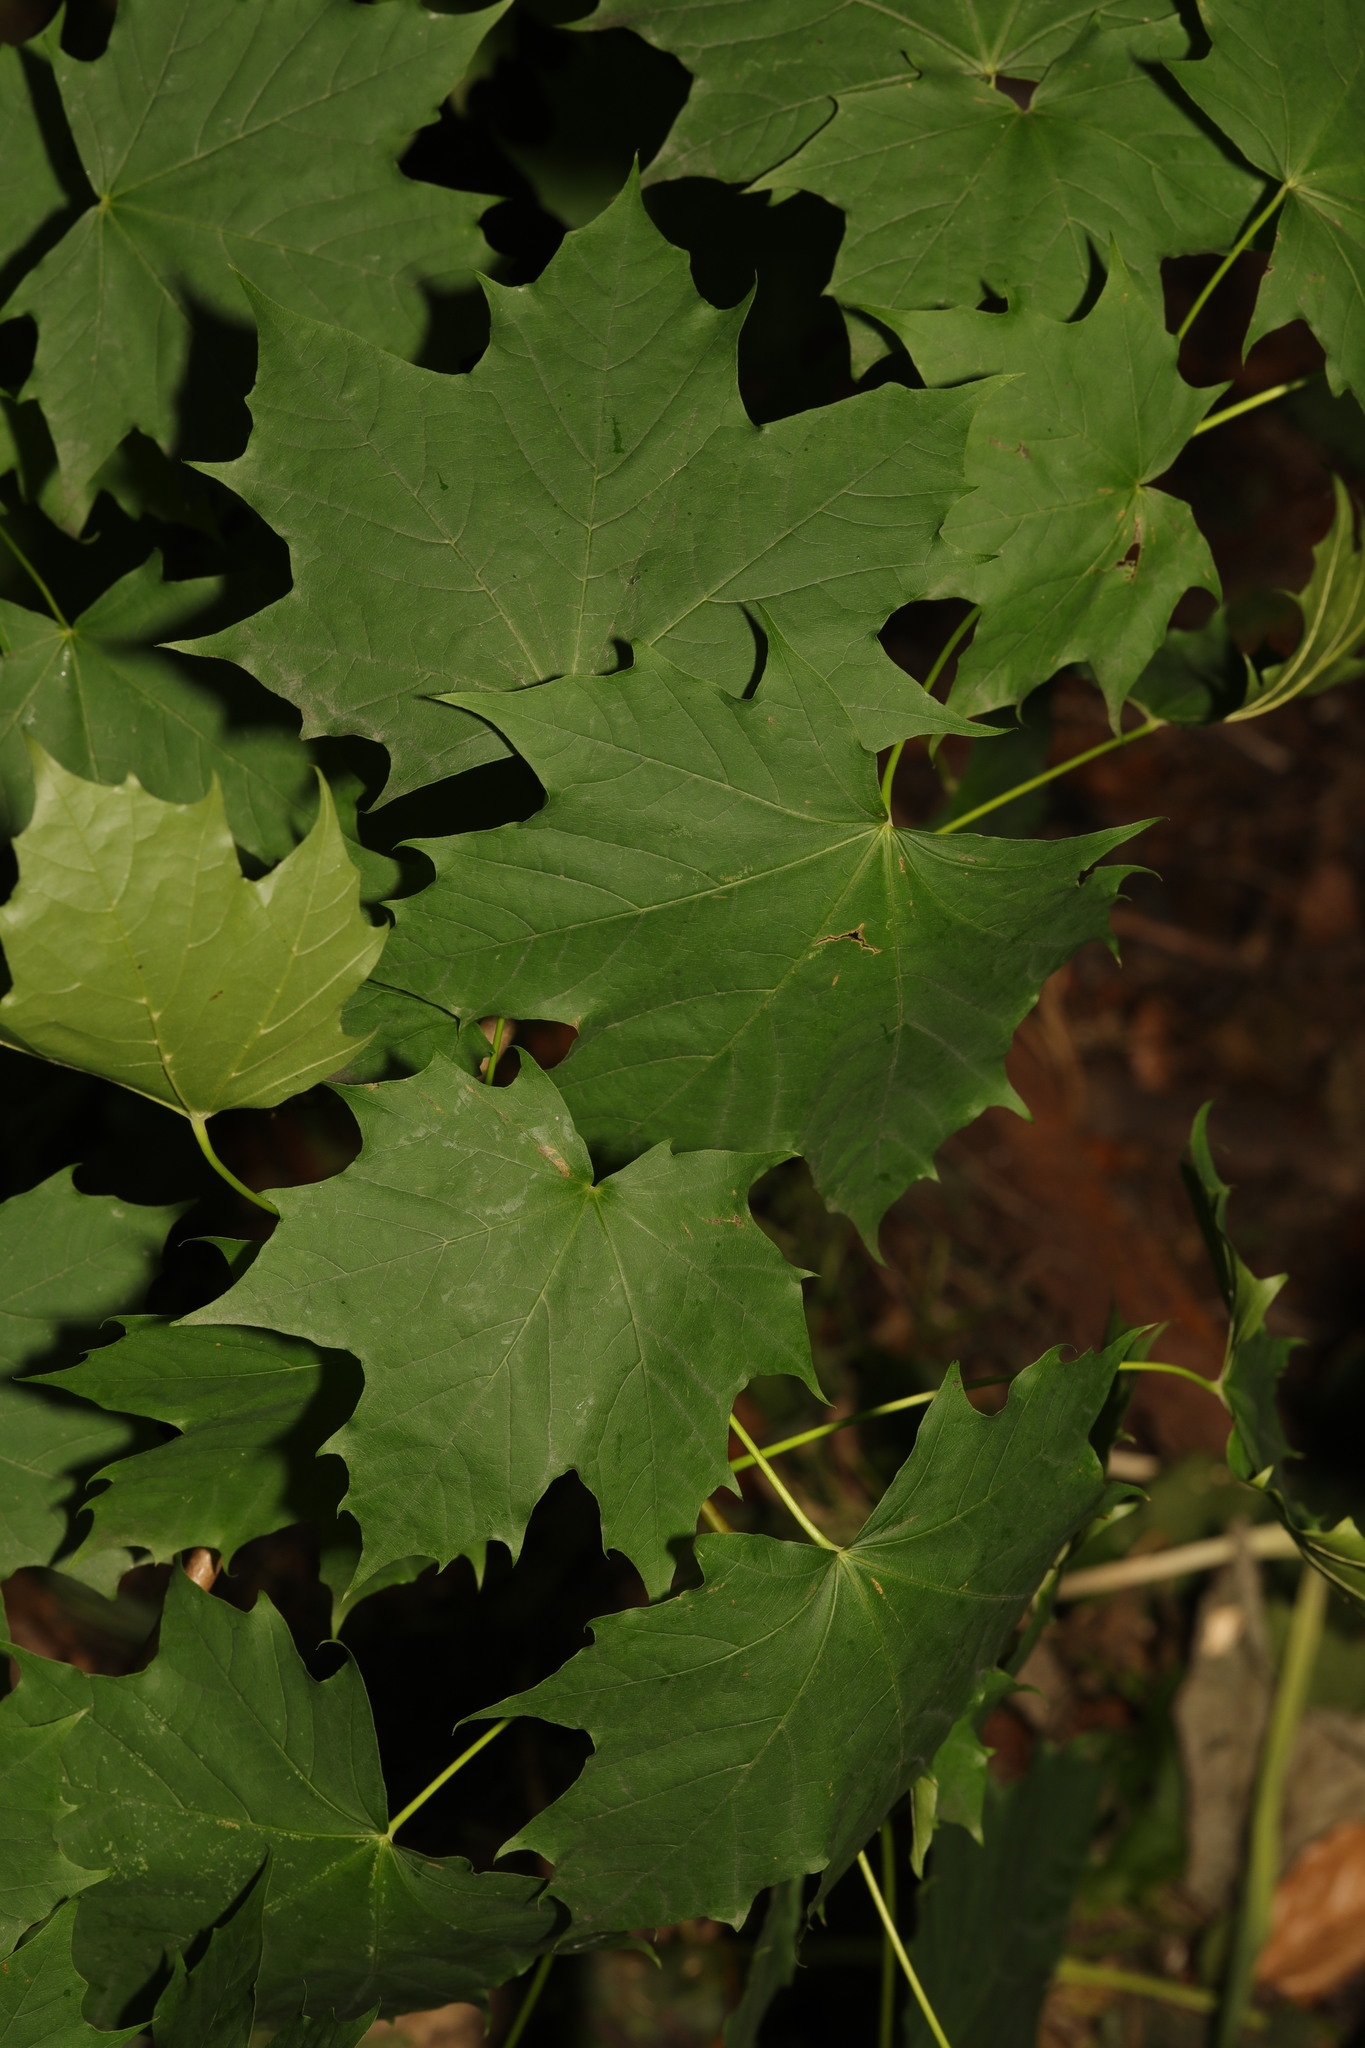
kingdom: Plantae
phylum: Tracheophyta
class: Magnoliopsida
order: Sapindales
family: Sapindaceae
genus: Acer
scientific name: Acer platanoides
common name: Norway maple
